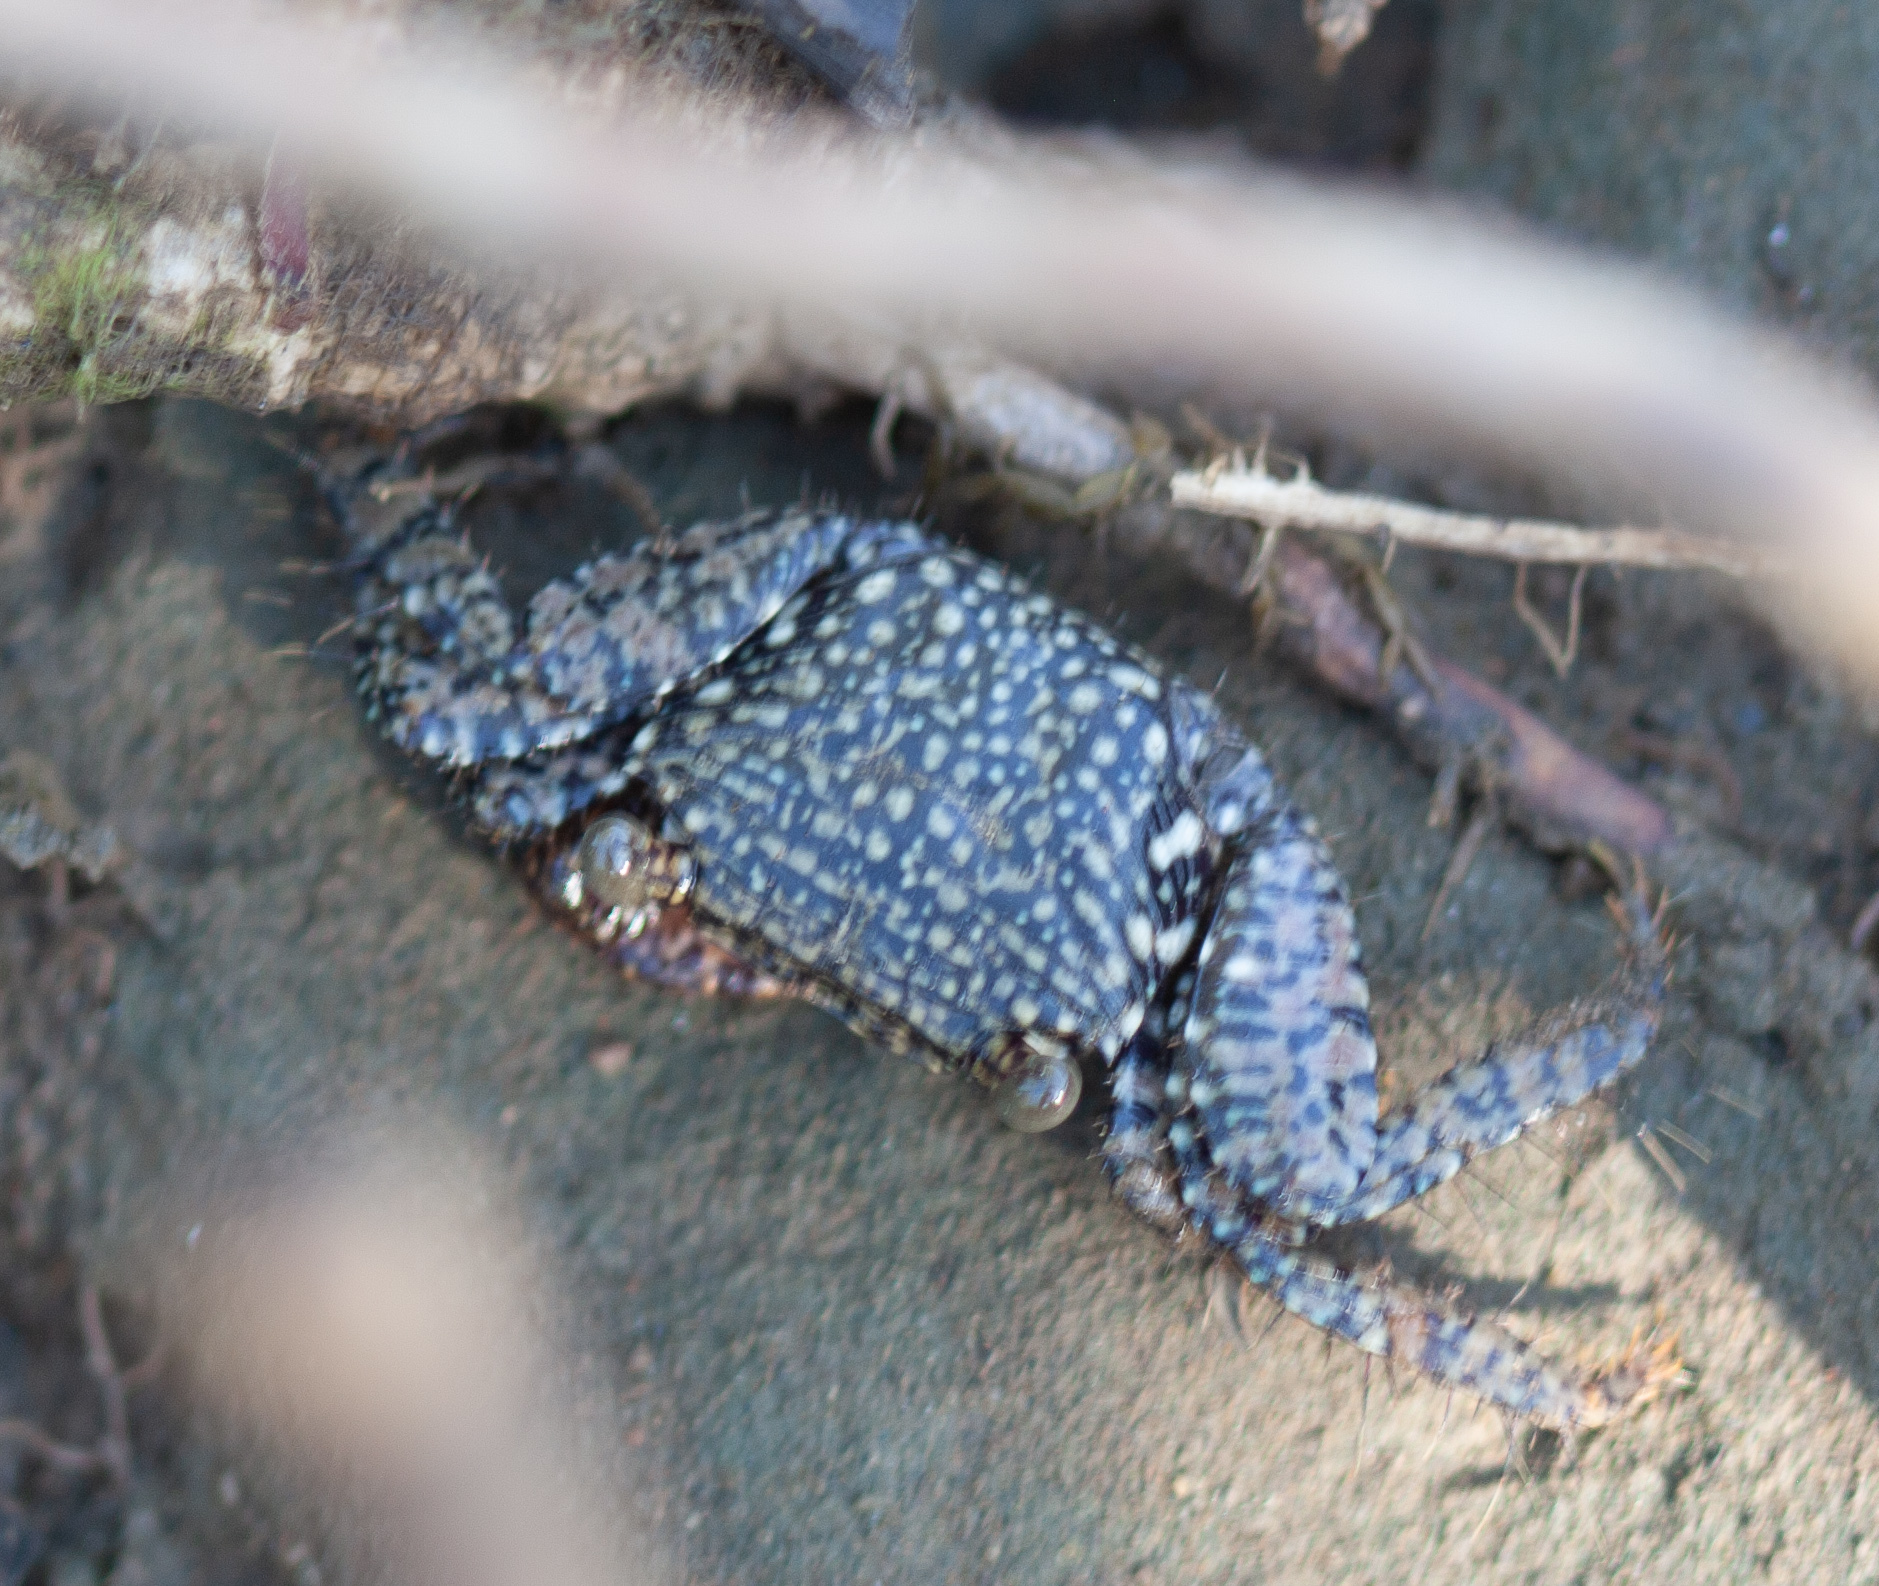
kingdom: Animalia
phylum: Arthropoda
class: Malacostraca
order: Decapoda
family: Grapsidae
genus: Goniopsis
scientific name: Goniopsis pulchra
